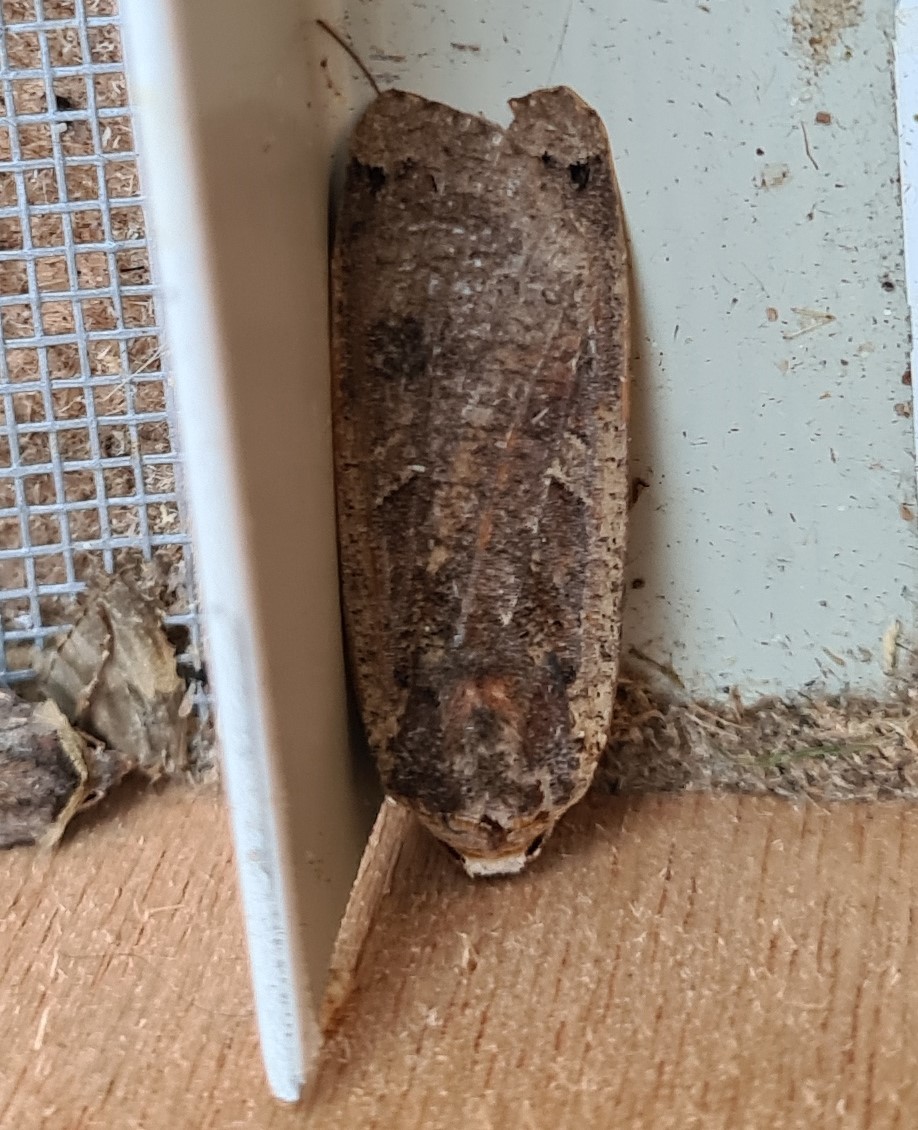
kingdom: Animalia
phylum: Arthropoda
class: Insecta
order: Lepidoptera
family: Noctuidae
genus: Noctua
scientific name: Noctua pronuba
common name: Large yellow underwing
